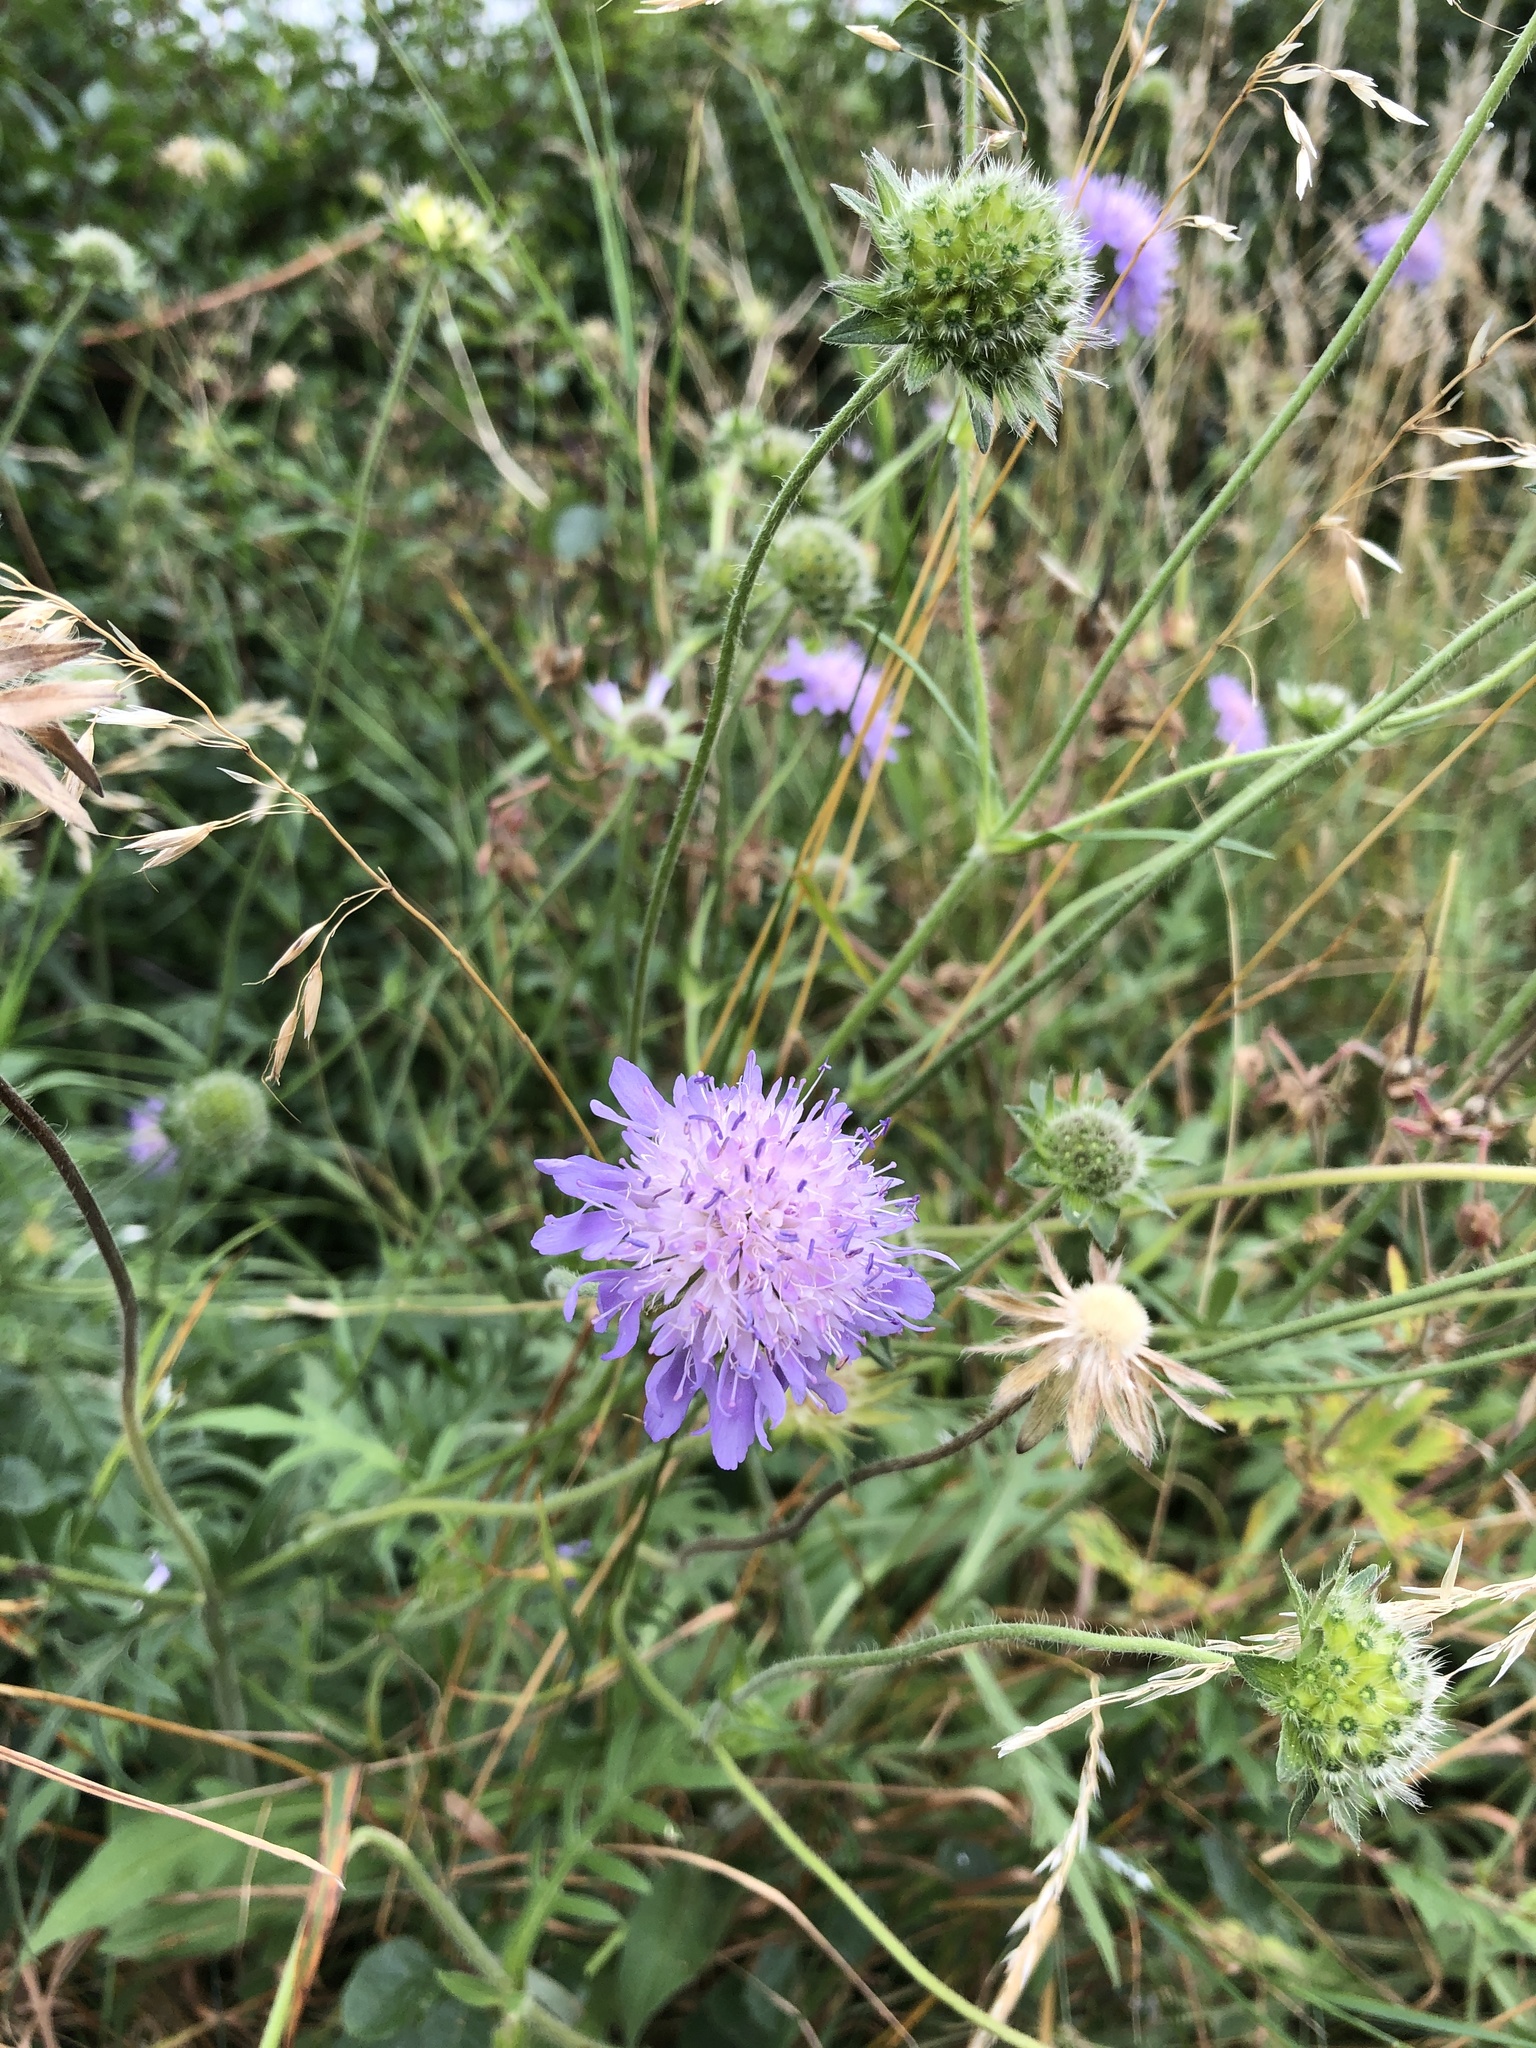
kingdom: Plantae
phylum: Tracheophyta
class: Magnoliopsida
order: Dipsacales
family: Caprifoliaceae
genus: Knautia
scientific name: Knautia arvensis
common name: Field scabiosa
